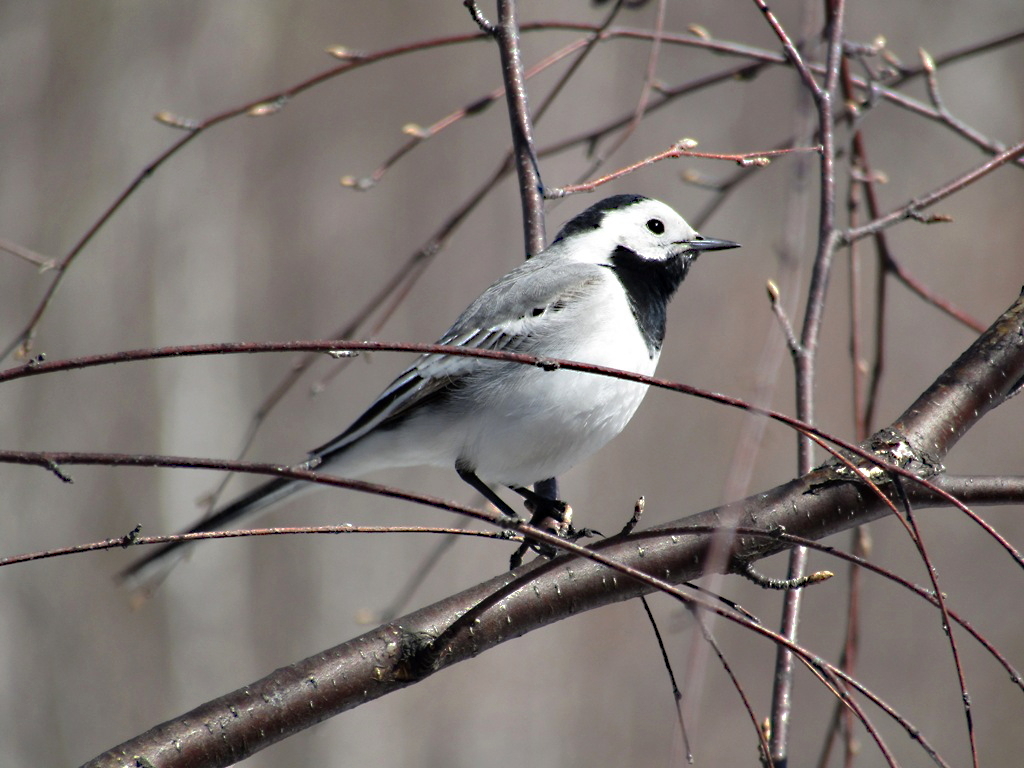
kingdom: Animalia
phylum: Chordata
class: Aves
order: Passeriformes
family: Motacillidae
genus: Motacilla
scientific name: Motacilla alba
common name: White wagtail
